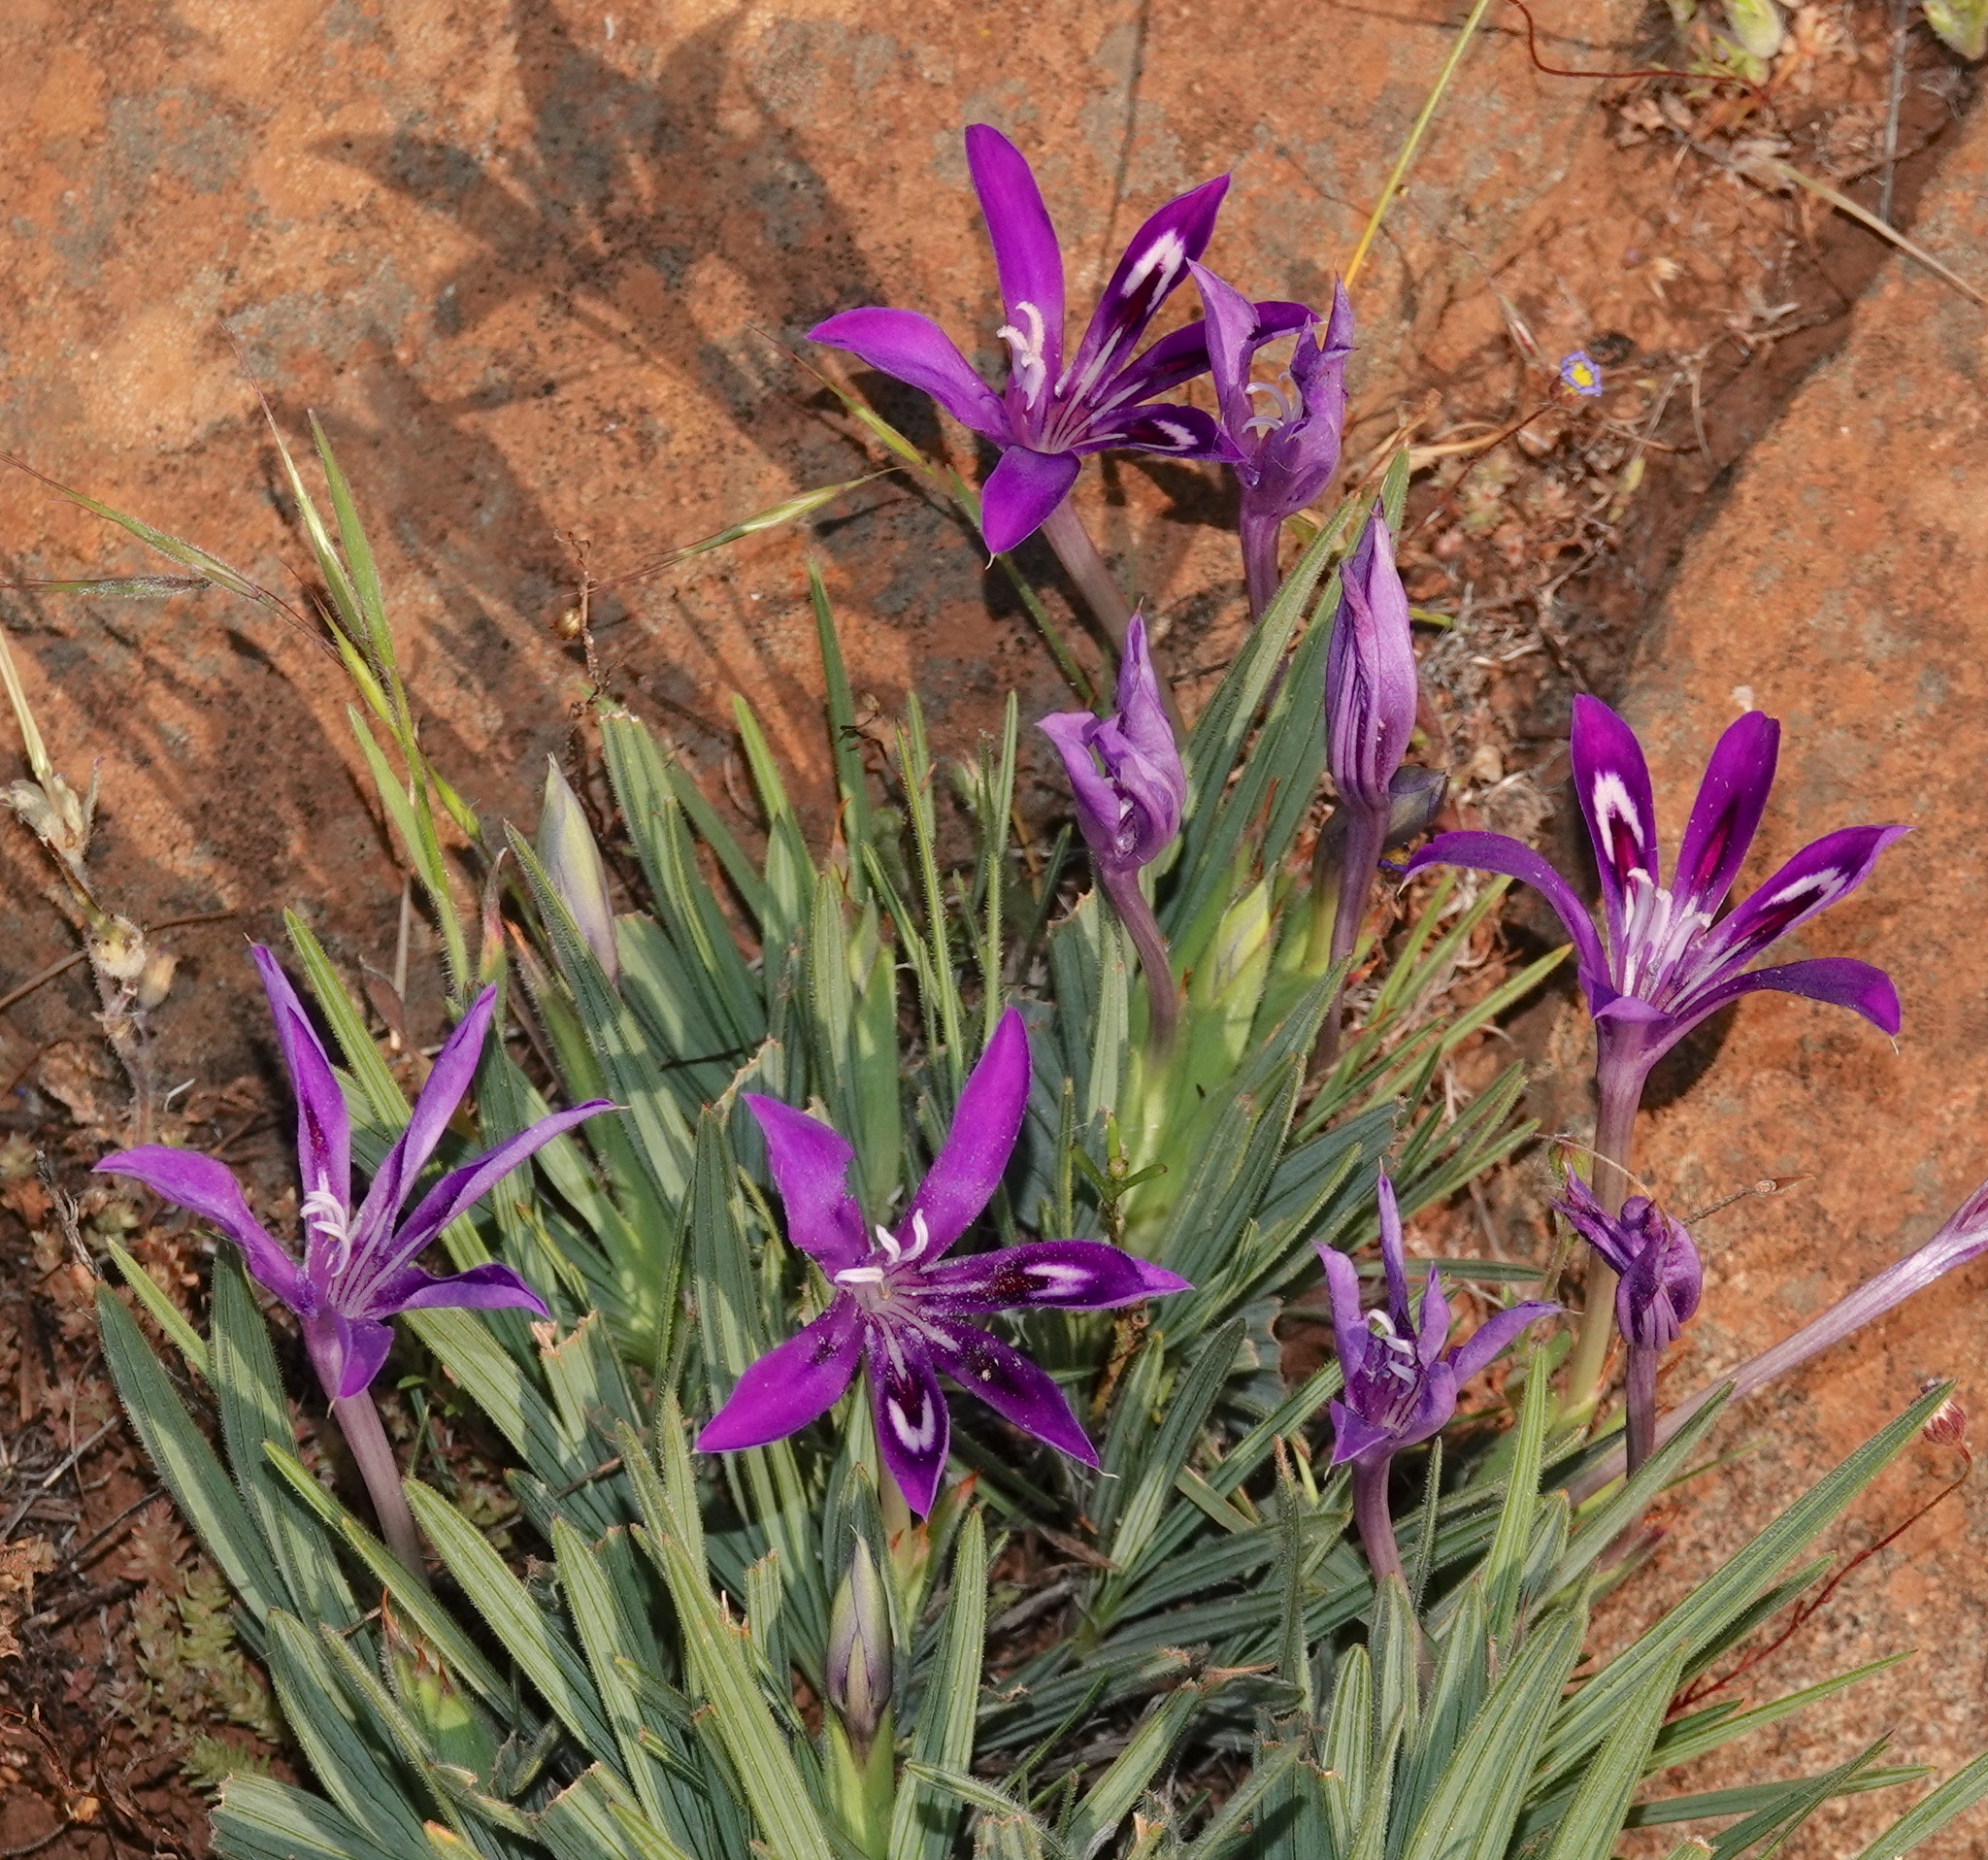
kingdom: Plantae
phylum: Tracheophyta
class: Liliopsida
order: Asparagales
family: Iridaceae
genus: Babiana
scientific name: Babiana framesii
